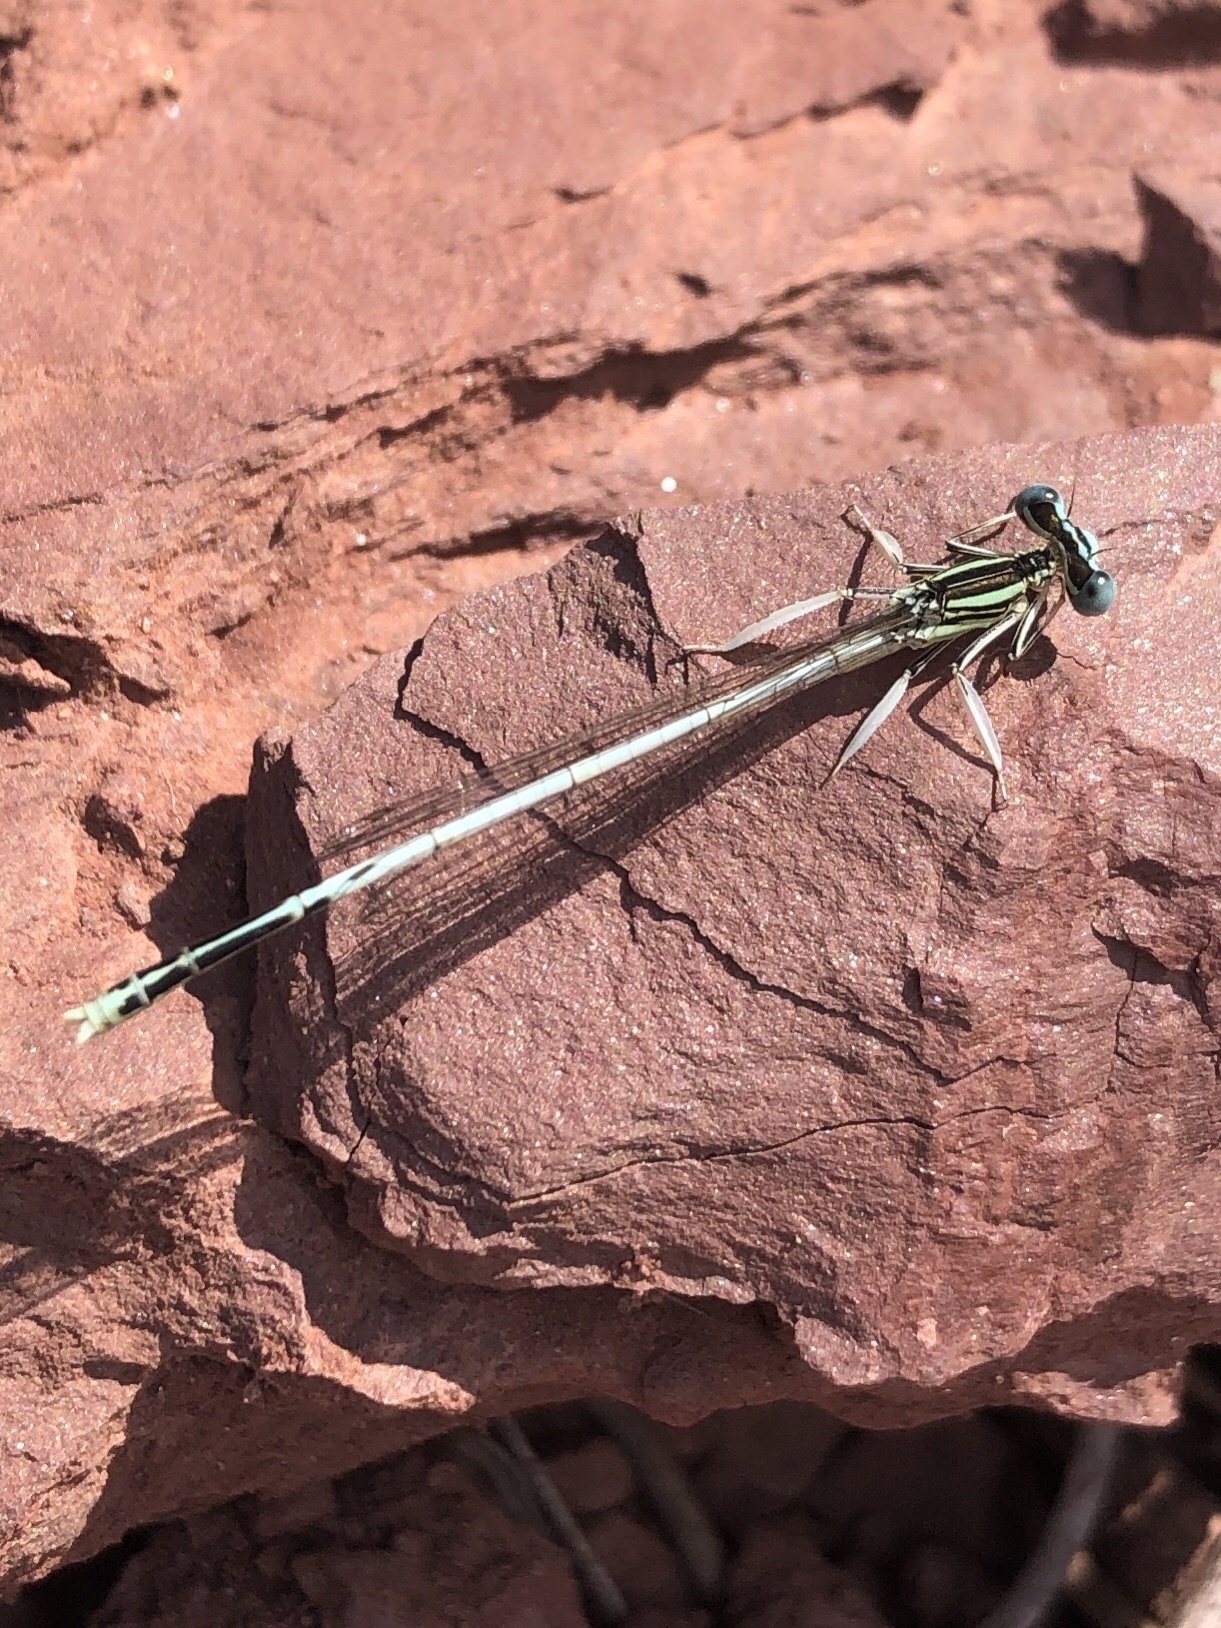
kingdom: Animalia
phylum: Arthropoda
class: Insecta
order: Odonata
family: Platycnemididae
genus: Platycnemis
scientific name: Platycnemis latipes
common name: White featherleg
